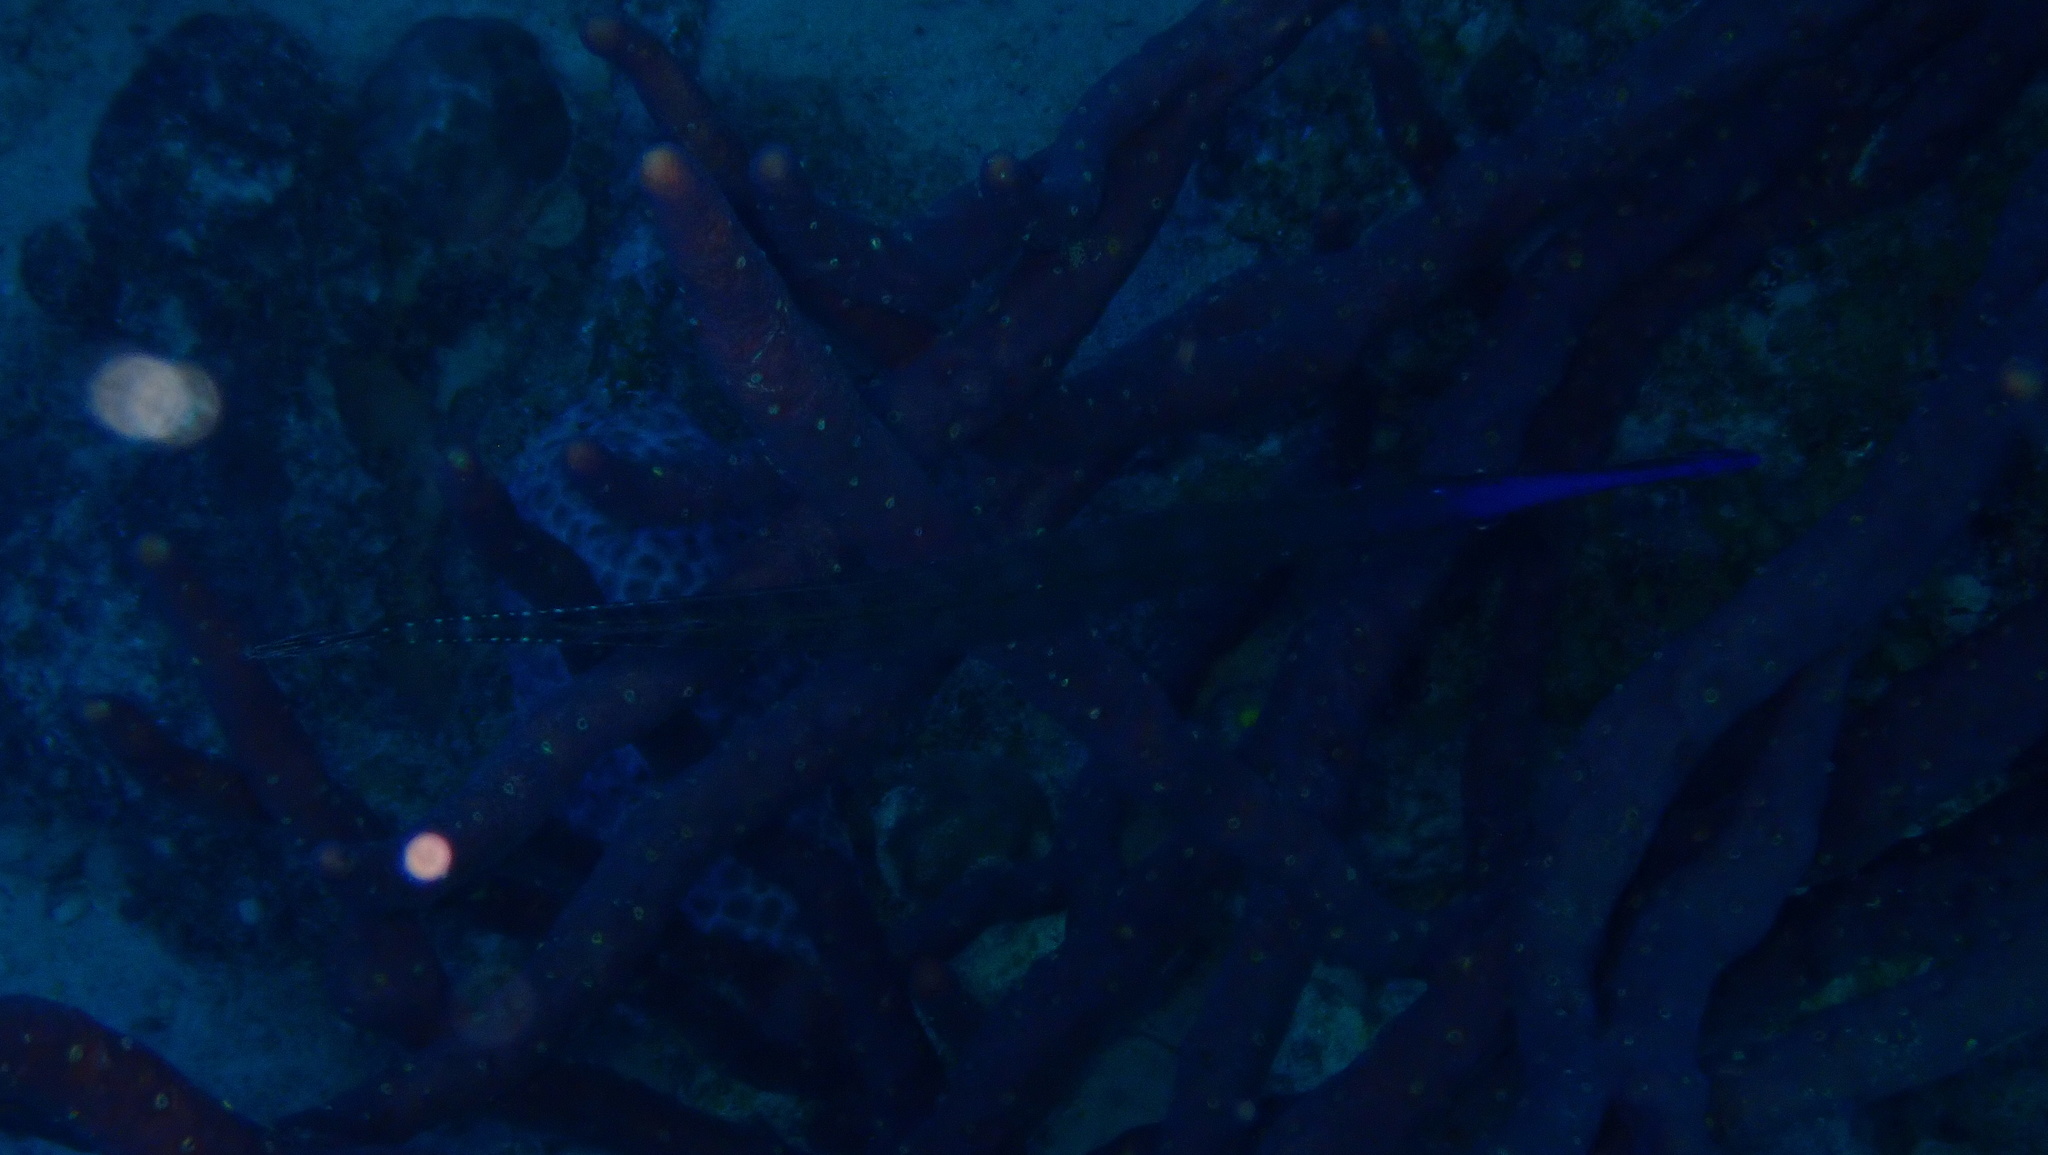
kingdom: Animalia
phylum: Chordata
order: Syngnathiformes
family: Aulostomidae
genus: Aulostomus
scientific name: Aulostomus maculatus
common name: West atlantic trumpetfish
